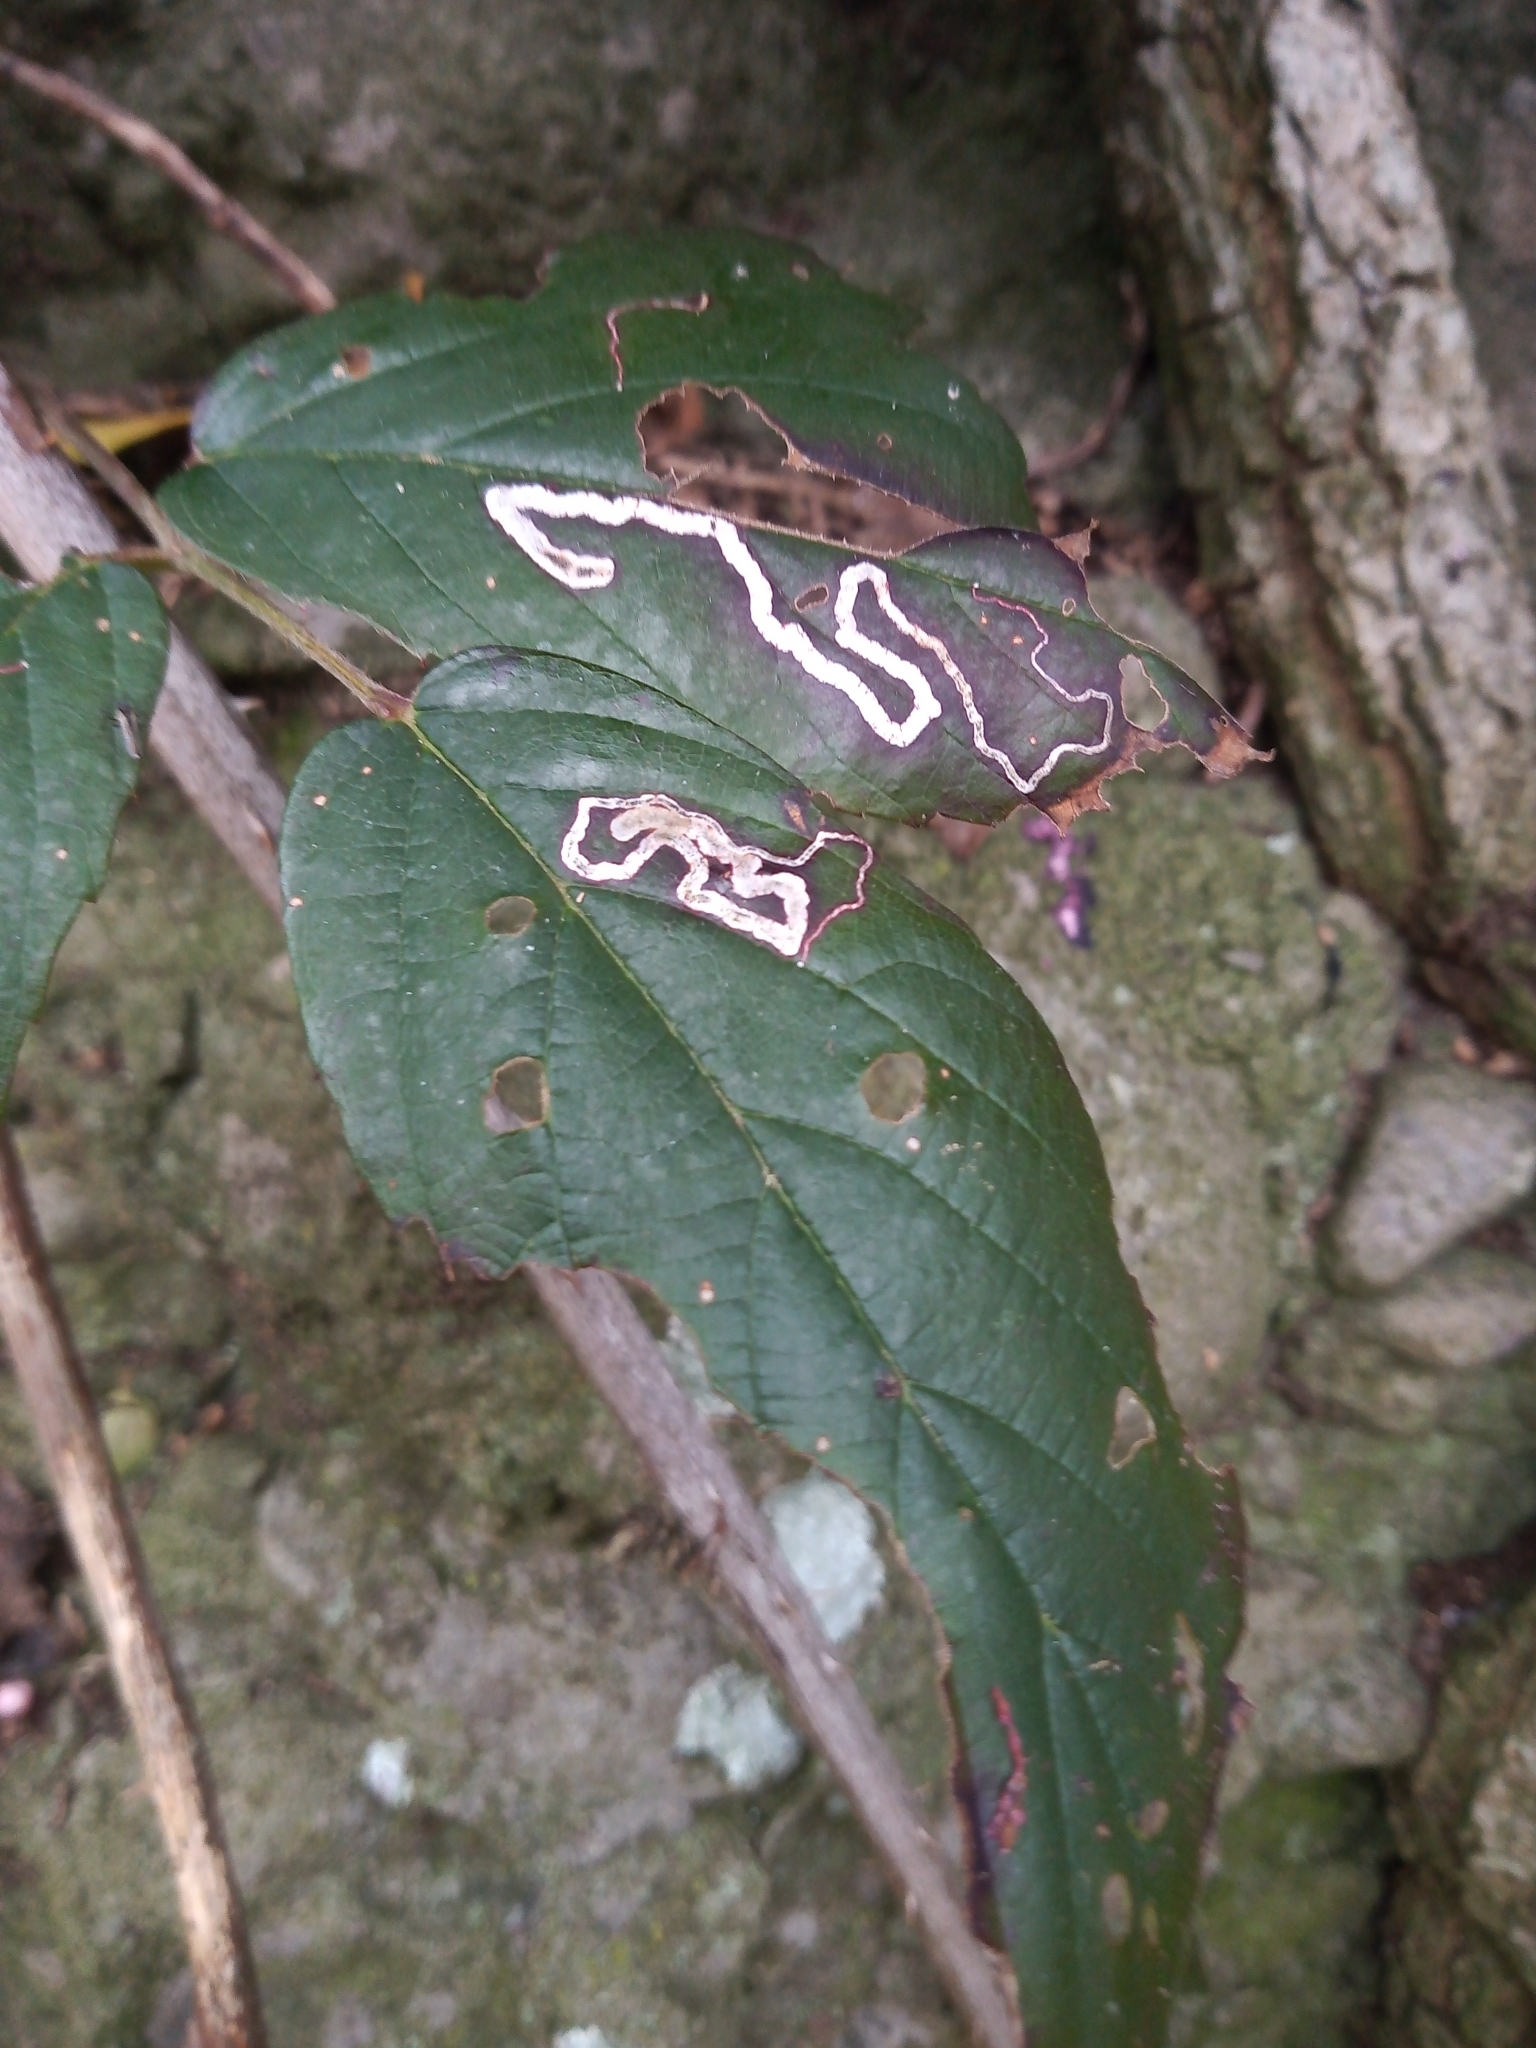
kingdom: Animalia
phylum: Arthropoda
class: Insecta
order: Lepidoptera
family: Nepticulidae
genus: Stigmella
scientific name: Stigmella aurella
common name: Golden pigmy
